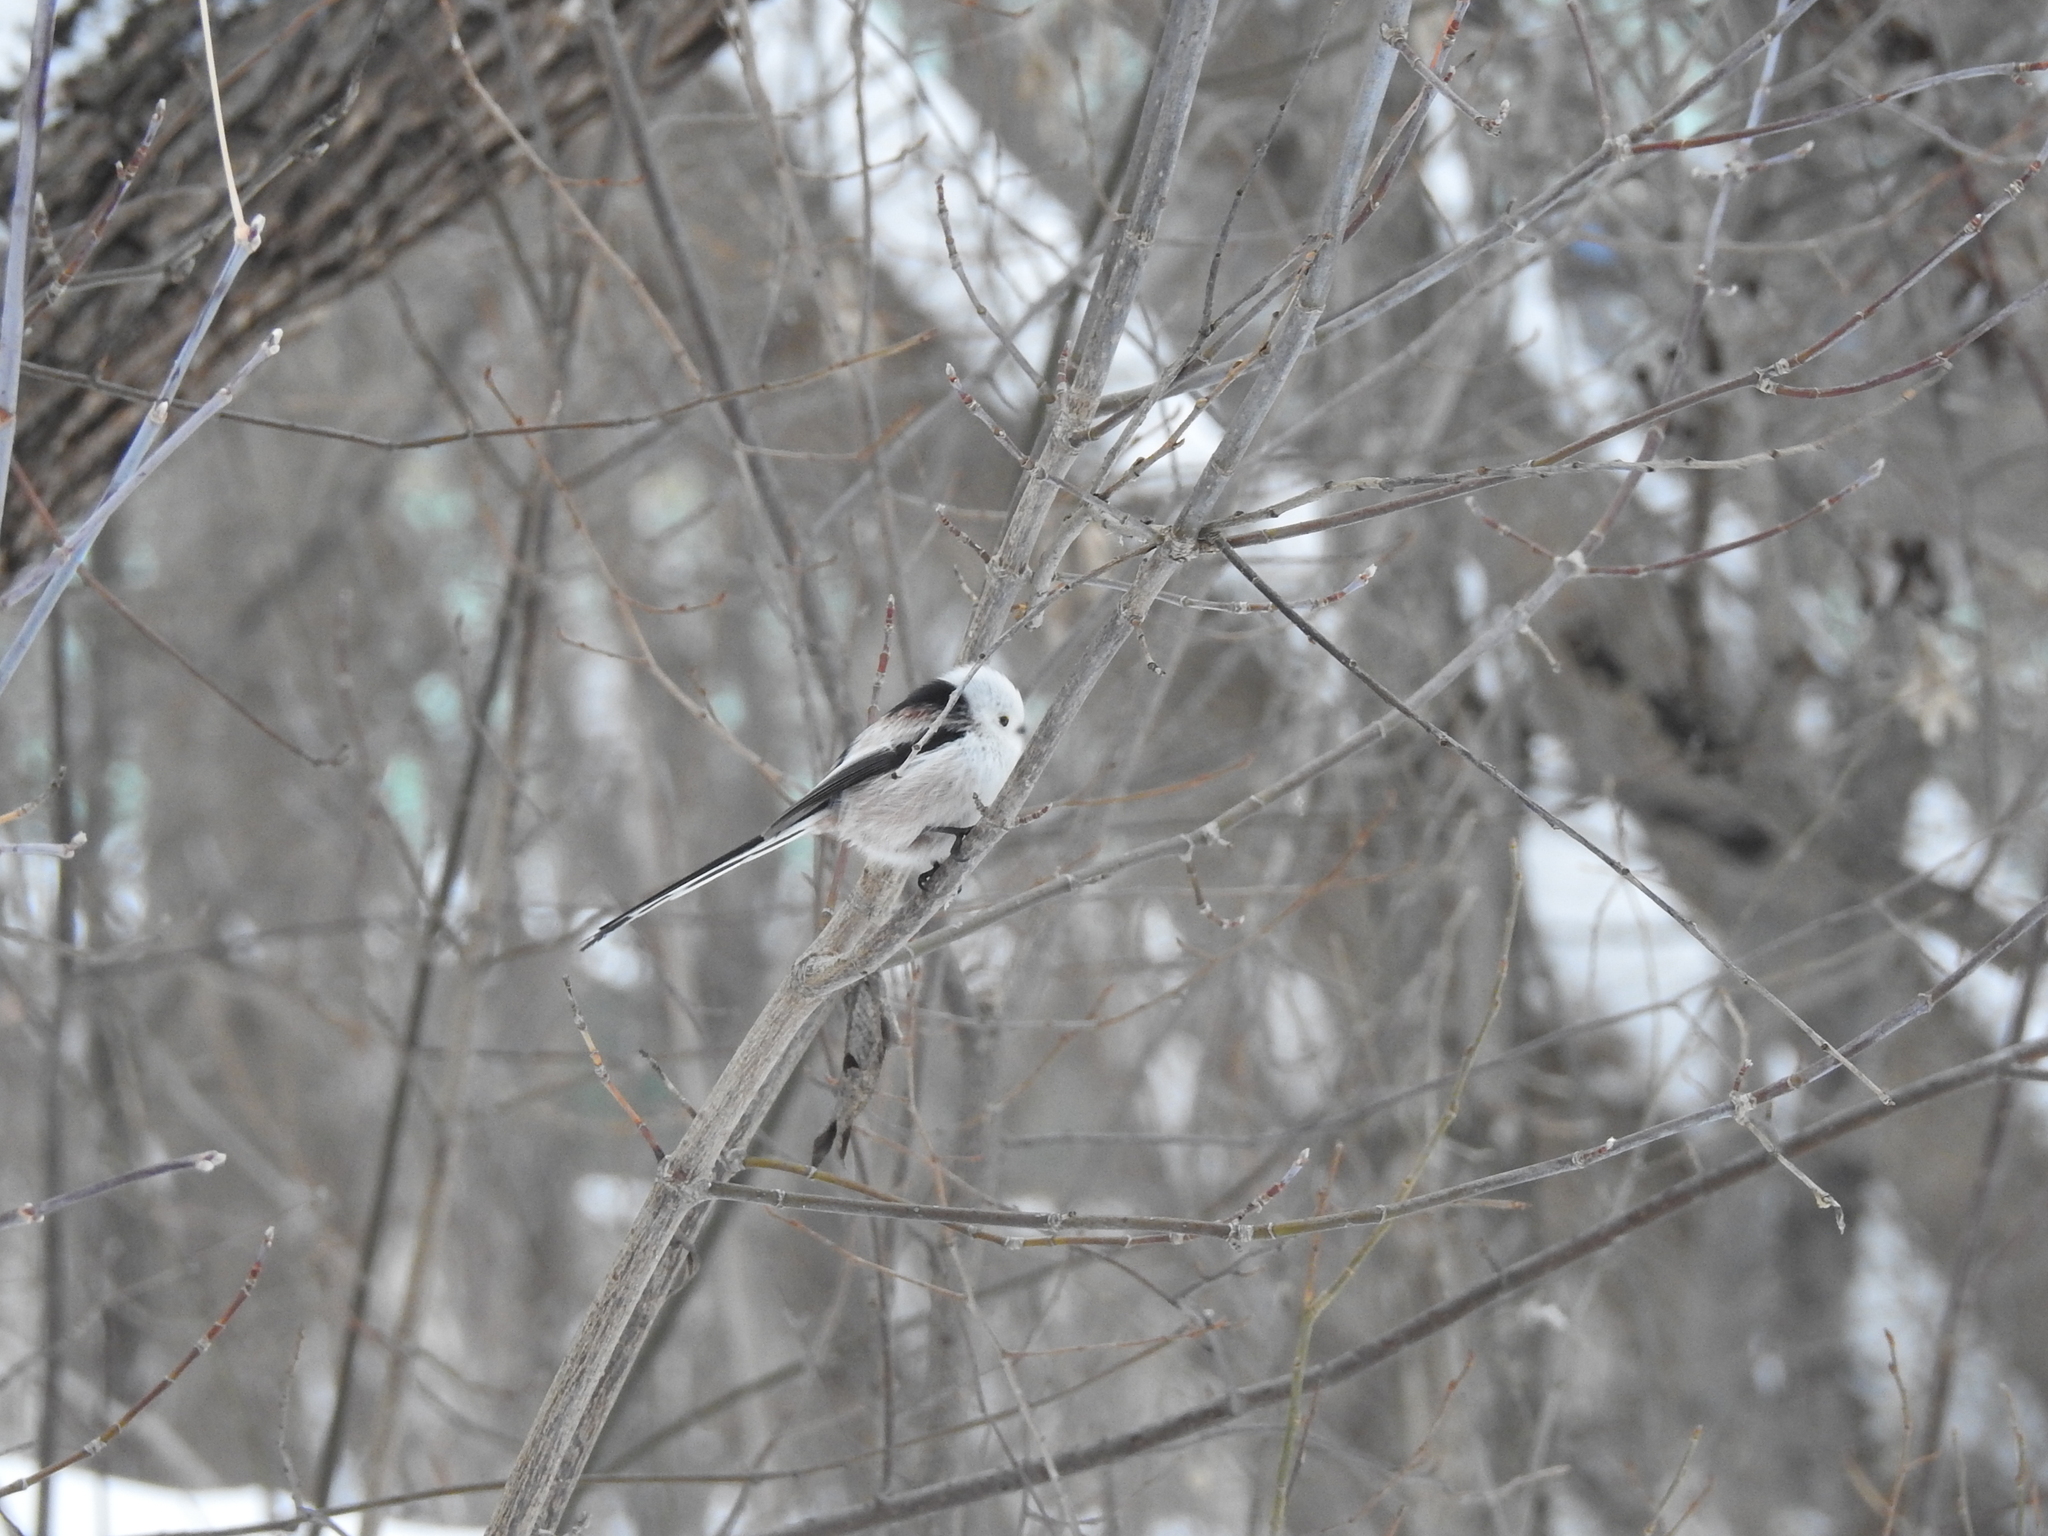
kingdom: Animalia
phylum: Chordata
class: Aves
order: Passeriformes
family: Aegithalidae
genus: Aegithalos
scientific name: Aegithalos caudatus
